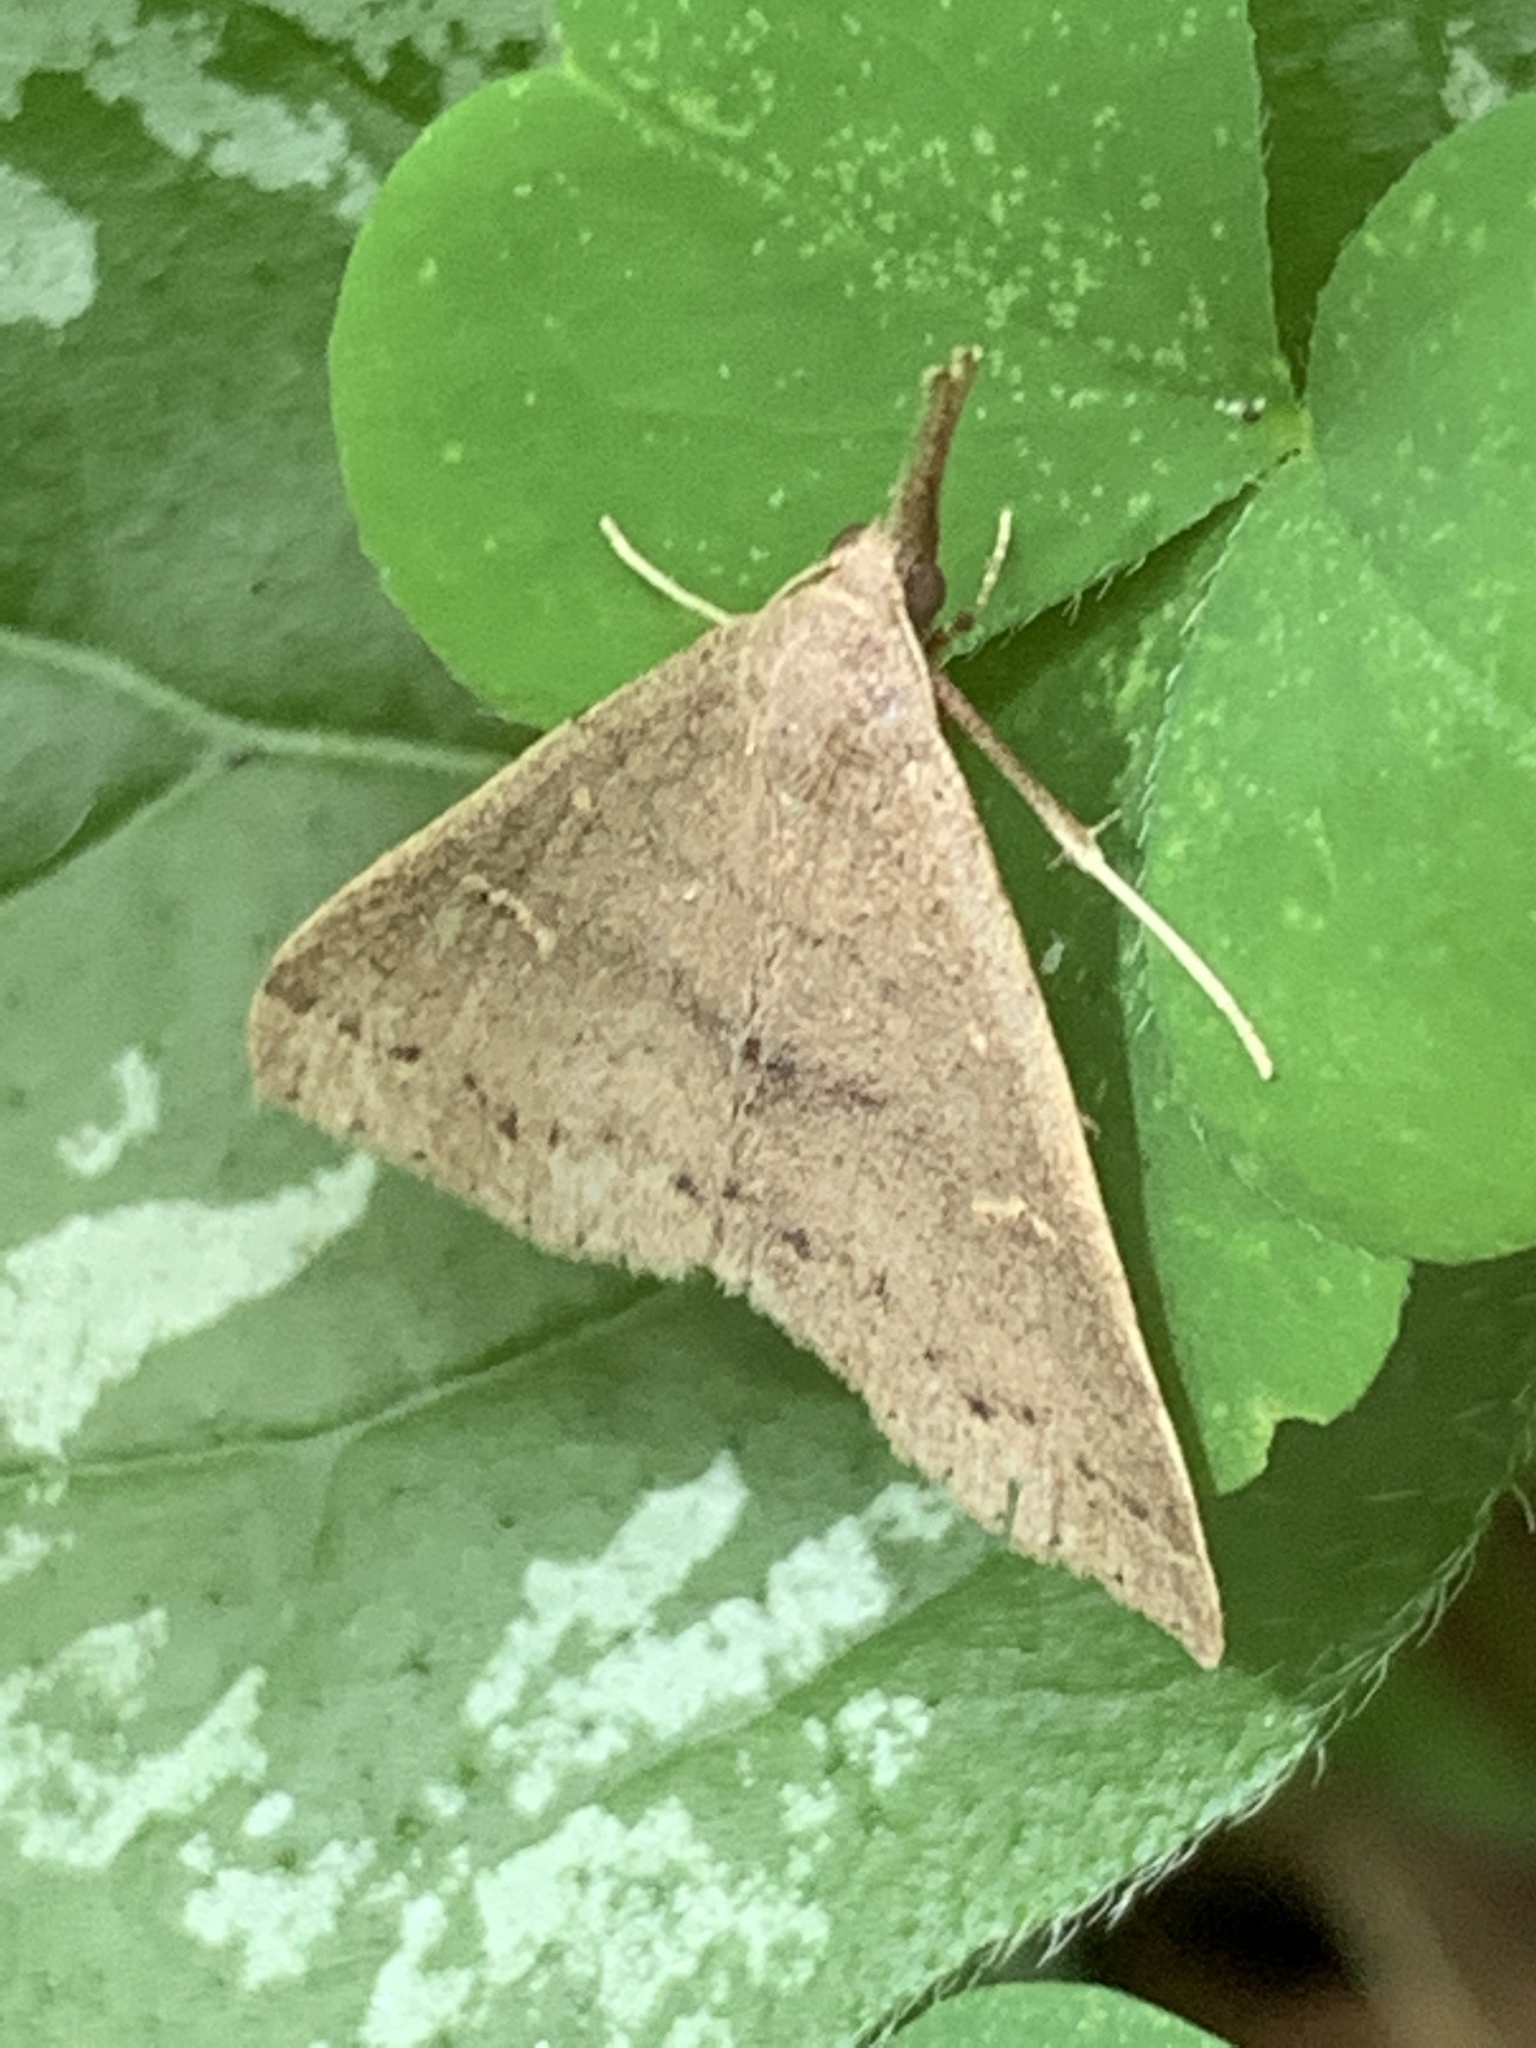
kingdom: Animalia
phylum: Arthropoda
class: Insecta
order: Lepidoptera
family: Erebidae
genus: Renia
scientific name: Renia adspergillus
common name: Speckled renia moth
